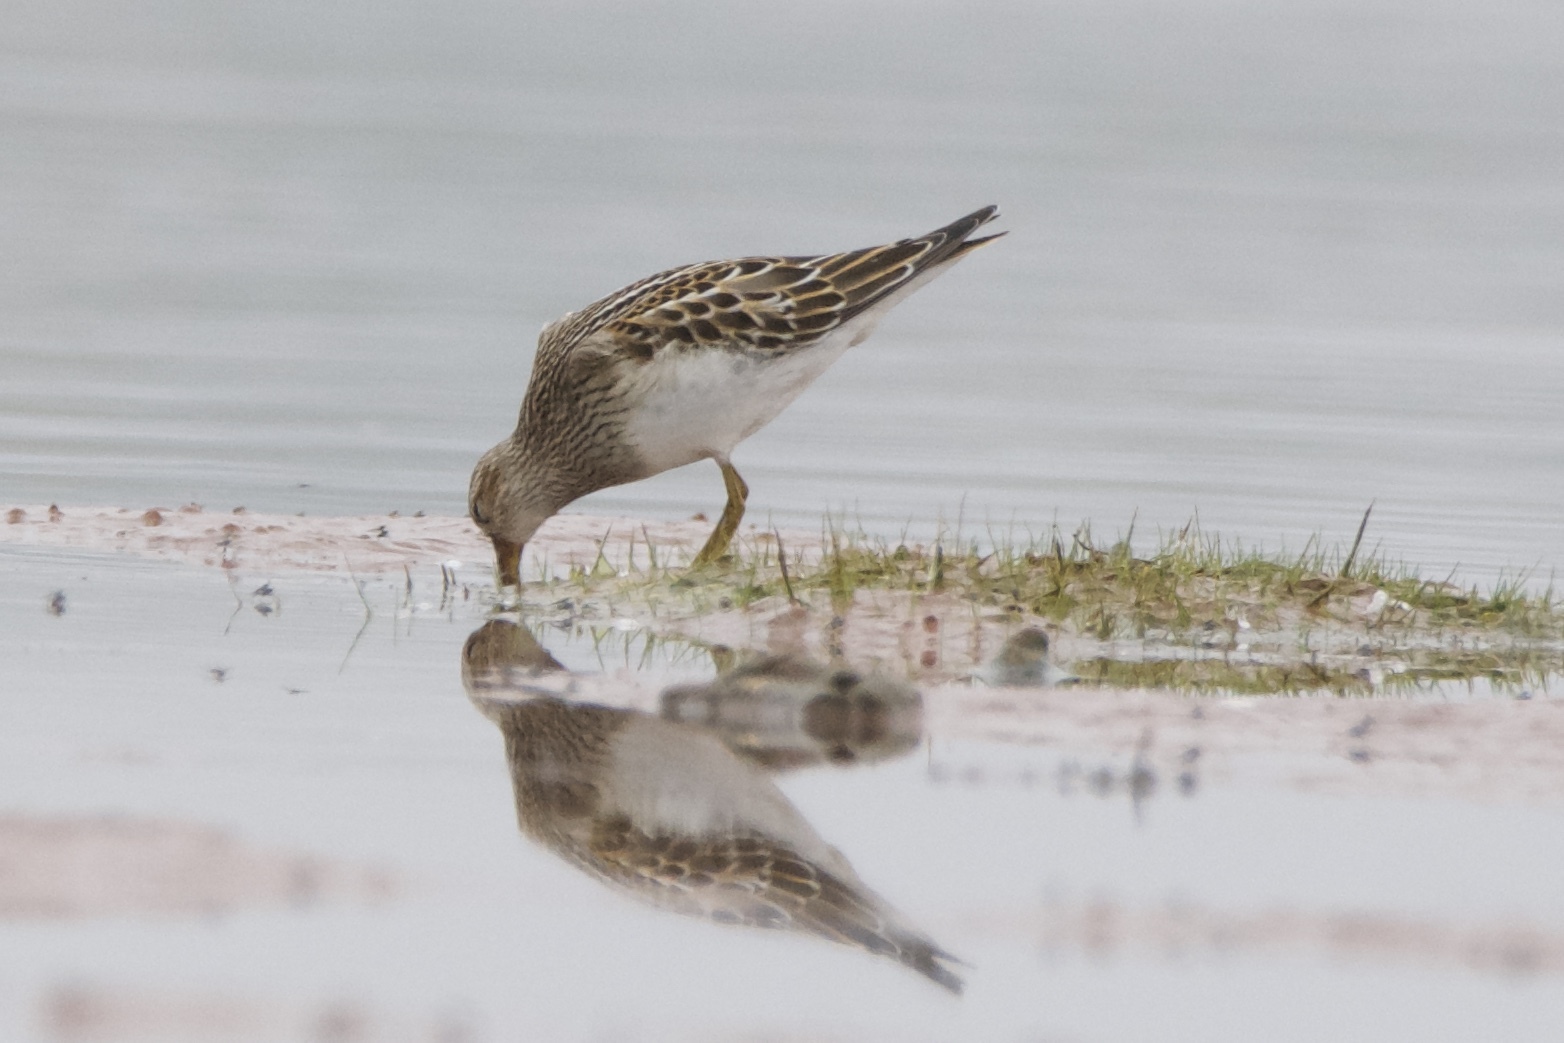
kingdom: Animalia
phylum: Chordata
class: Aves
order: Charadriiformes
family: Scolopacidae
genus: Calidris
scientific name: Calidris melanotos
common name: Pectoral sandpiper
